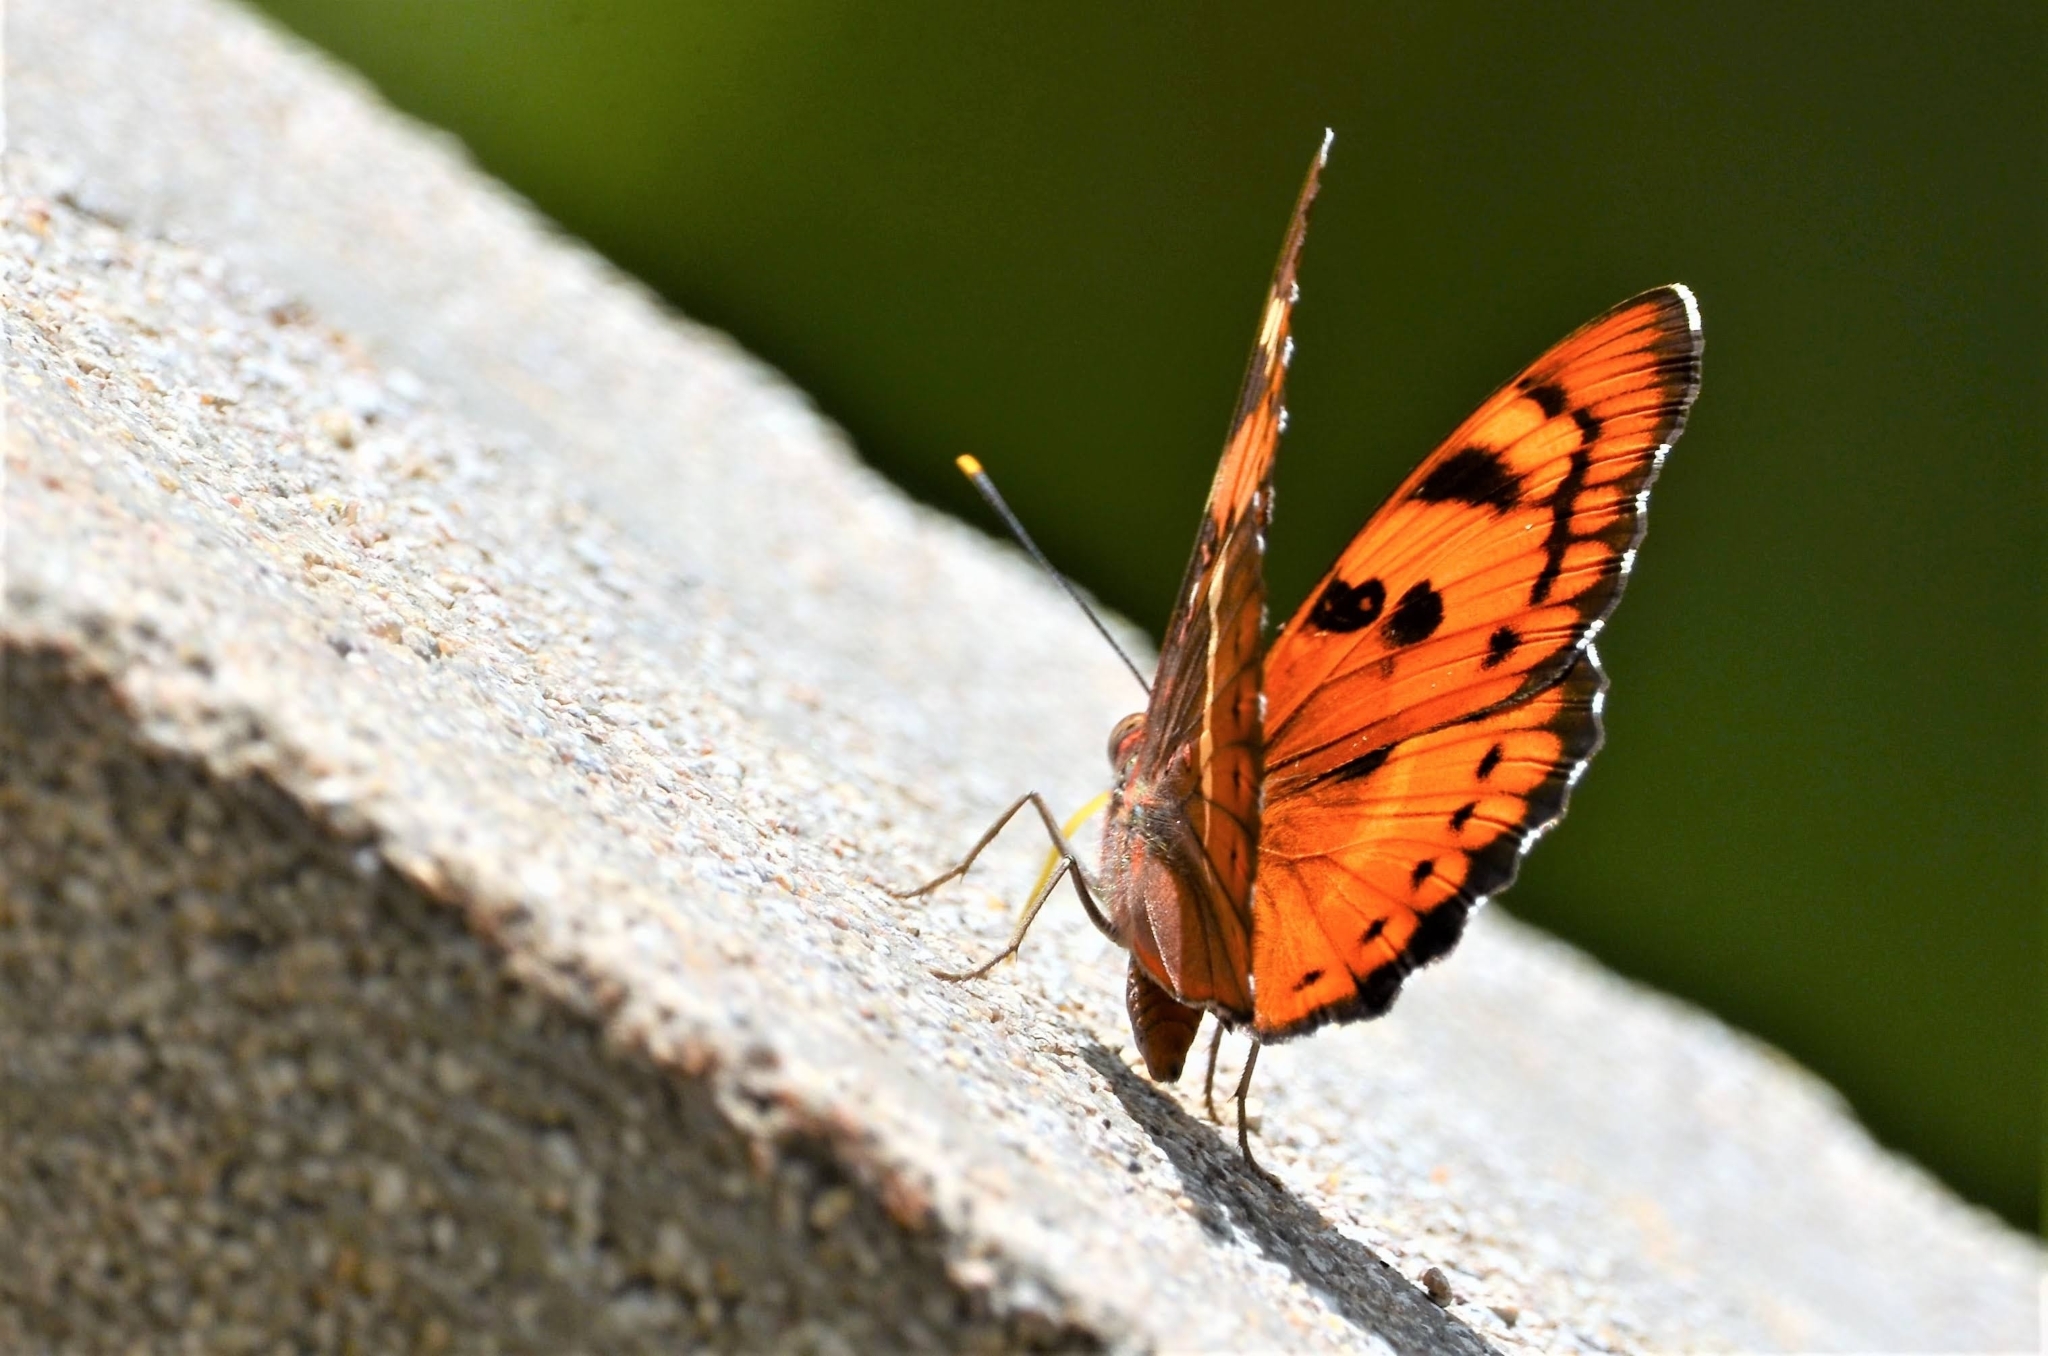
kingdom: Animalia
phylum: Arthropoda
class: Insecta
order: Lepidoptera
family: Nymphalidae
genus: Euthalia
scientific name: Euthalia nais
